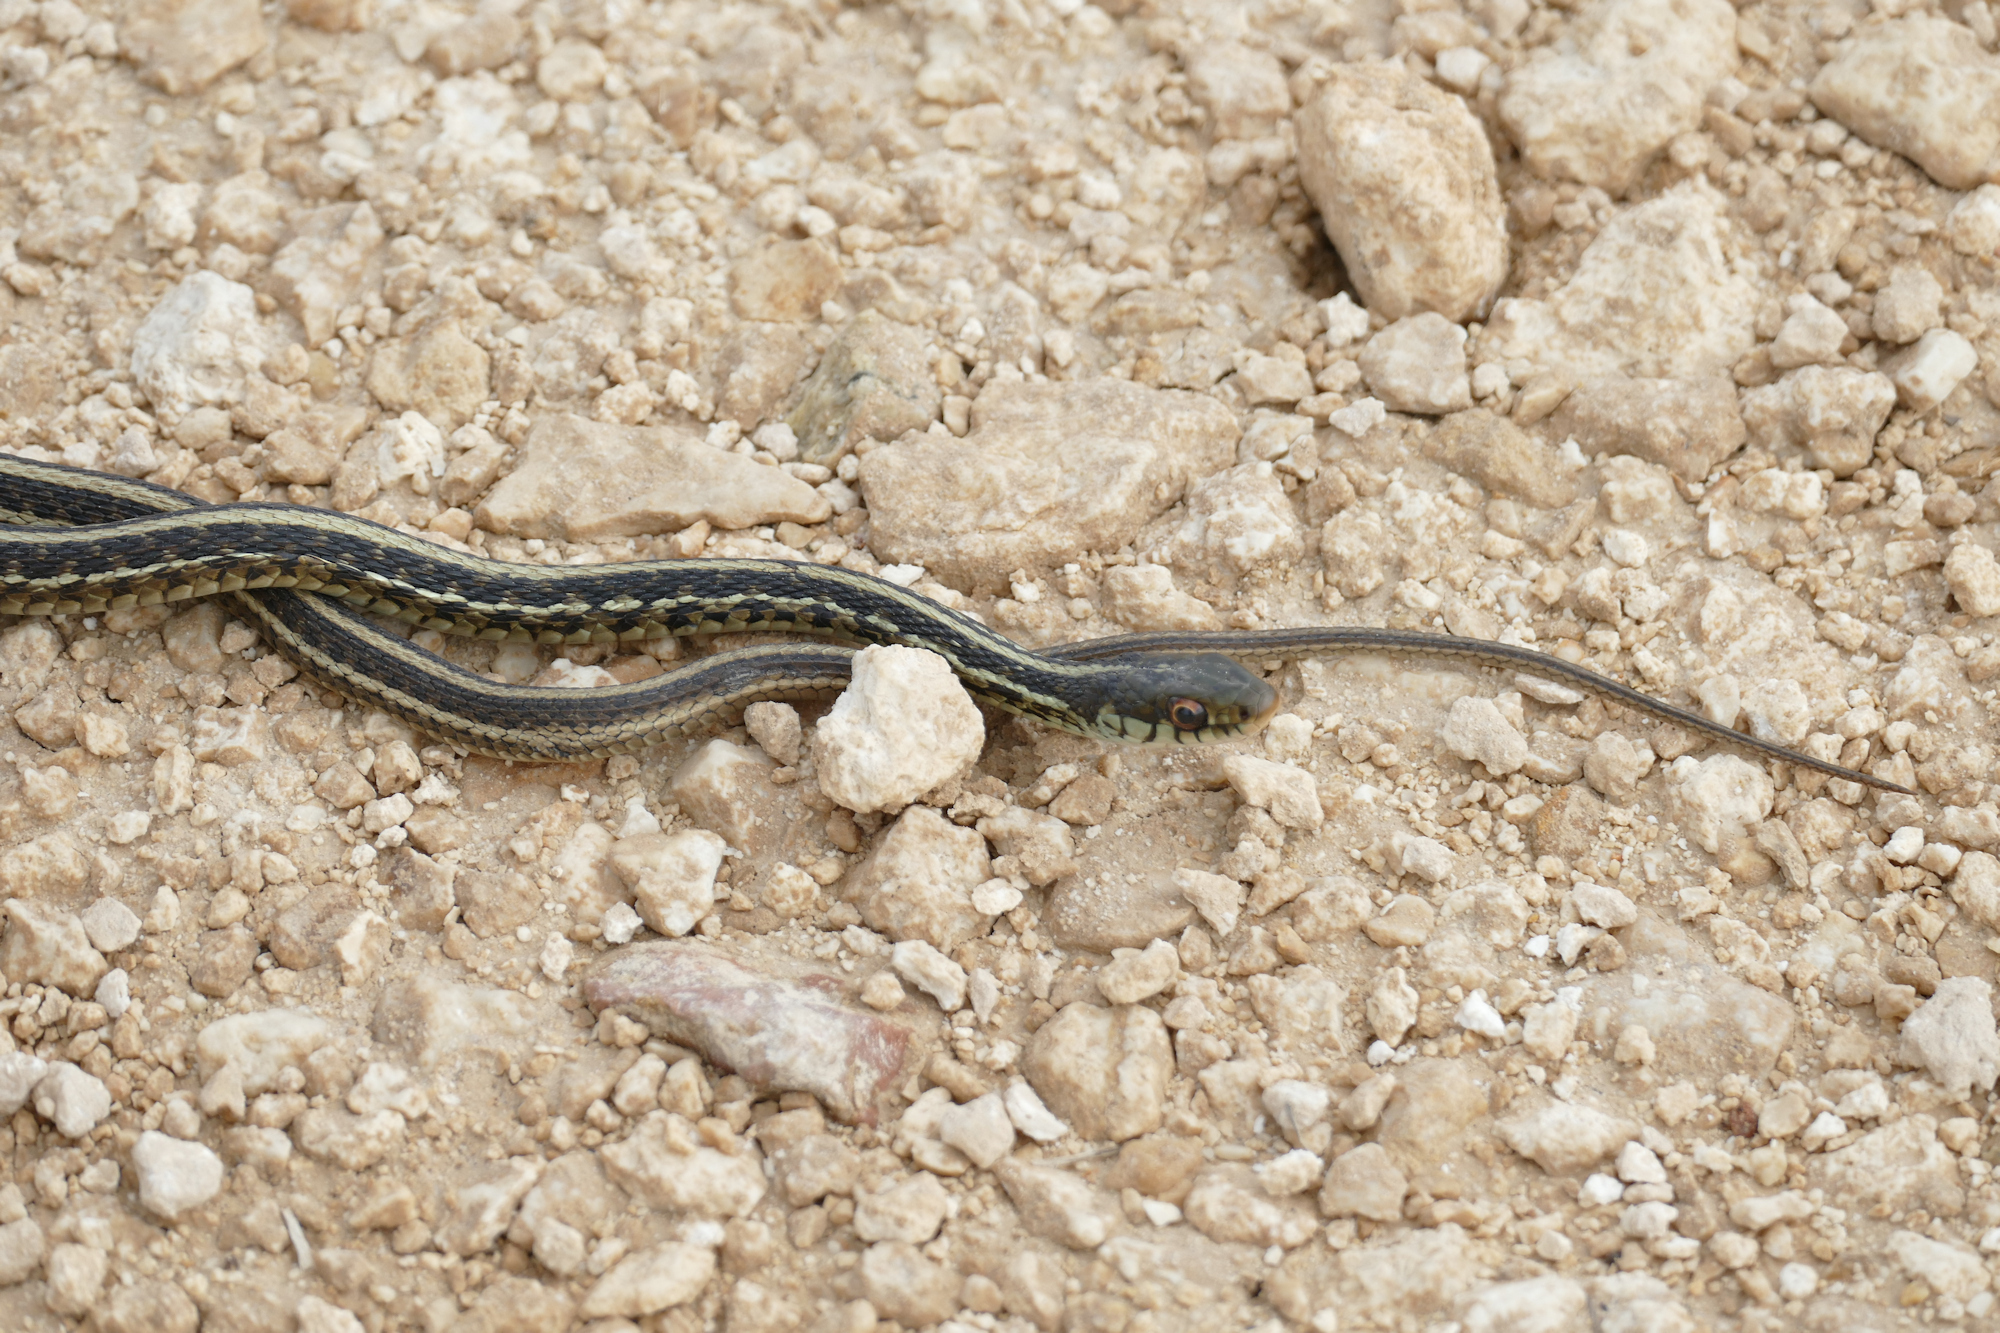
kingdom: Animalia
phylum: Chordata
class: Squamata
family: Colubridae
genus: Thamnophis
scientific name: Thamnophis sirtalis
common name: Common garter snake
